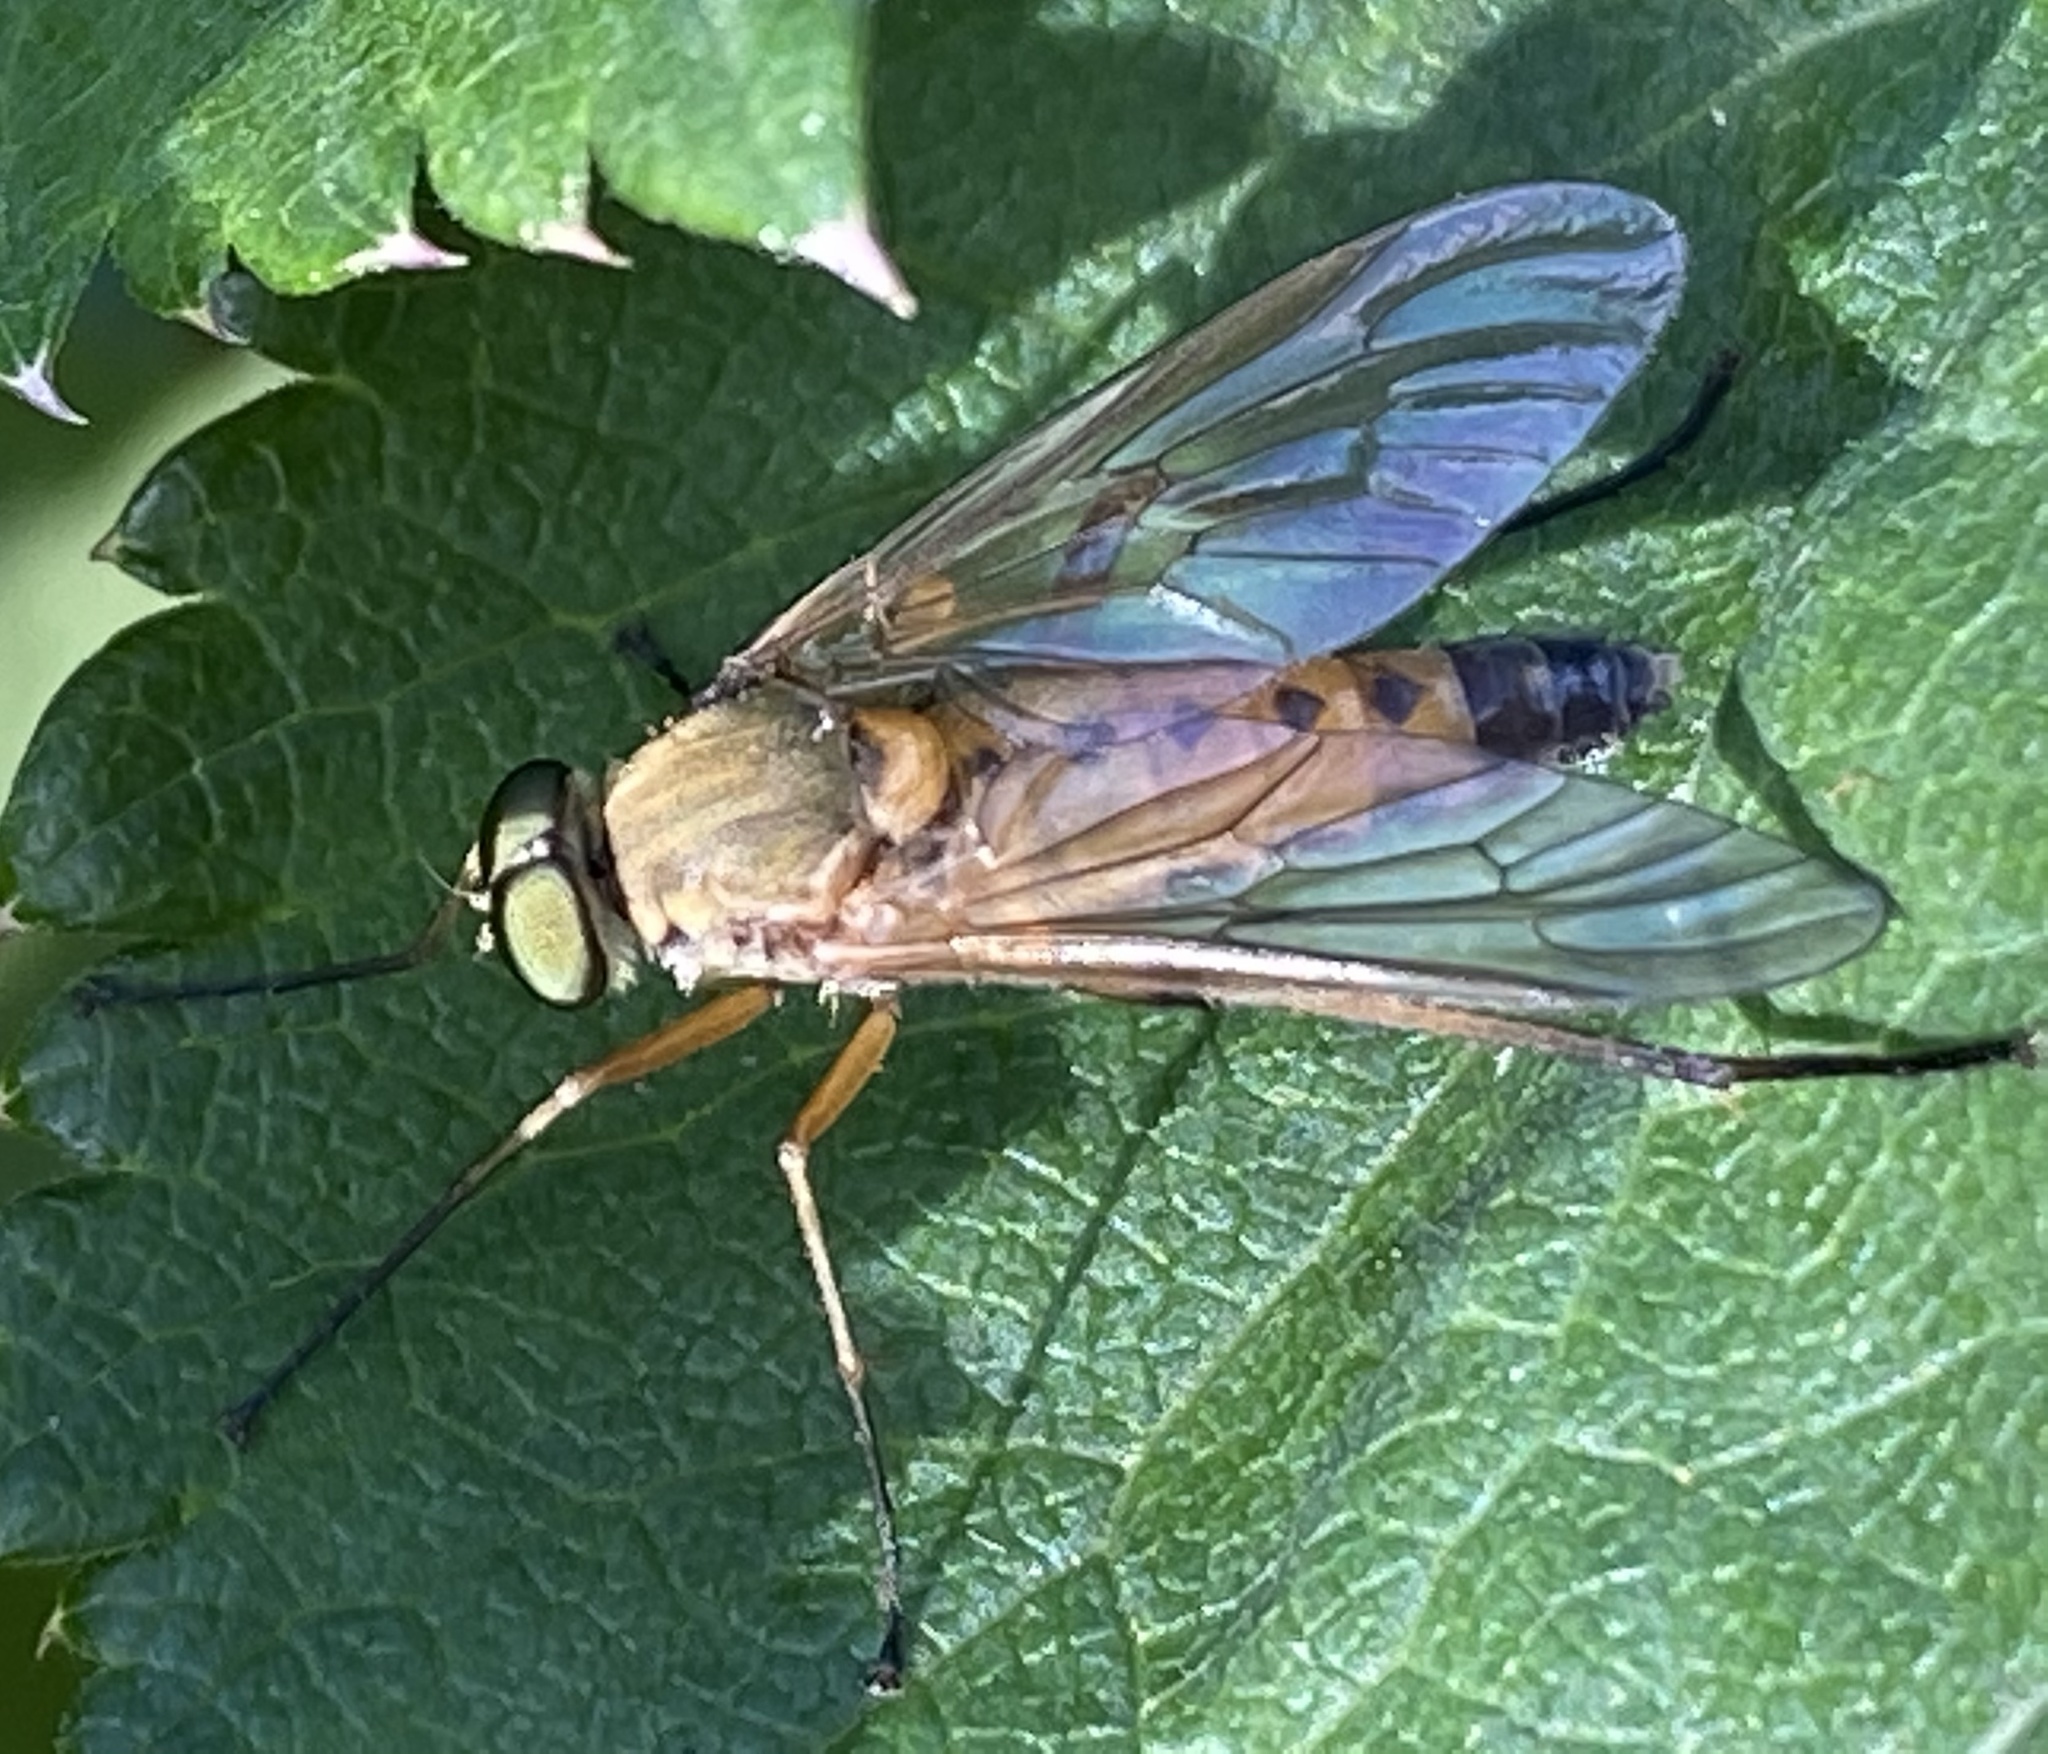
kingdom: Animalia
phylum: Arthropoda
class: Insecta
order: Diptera
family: Rhagionidae
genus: Rhagio
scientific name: Rhagio tringaria
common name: Marsh snipefly
